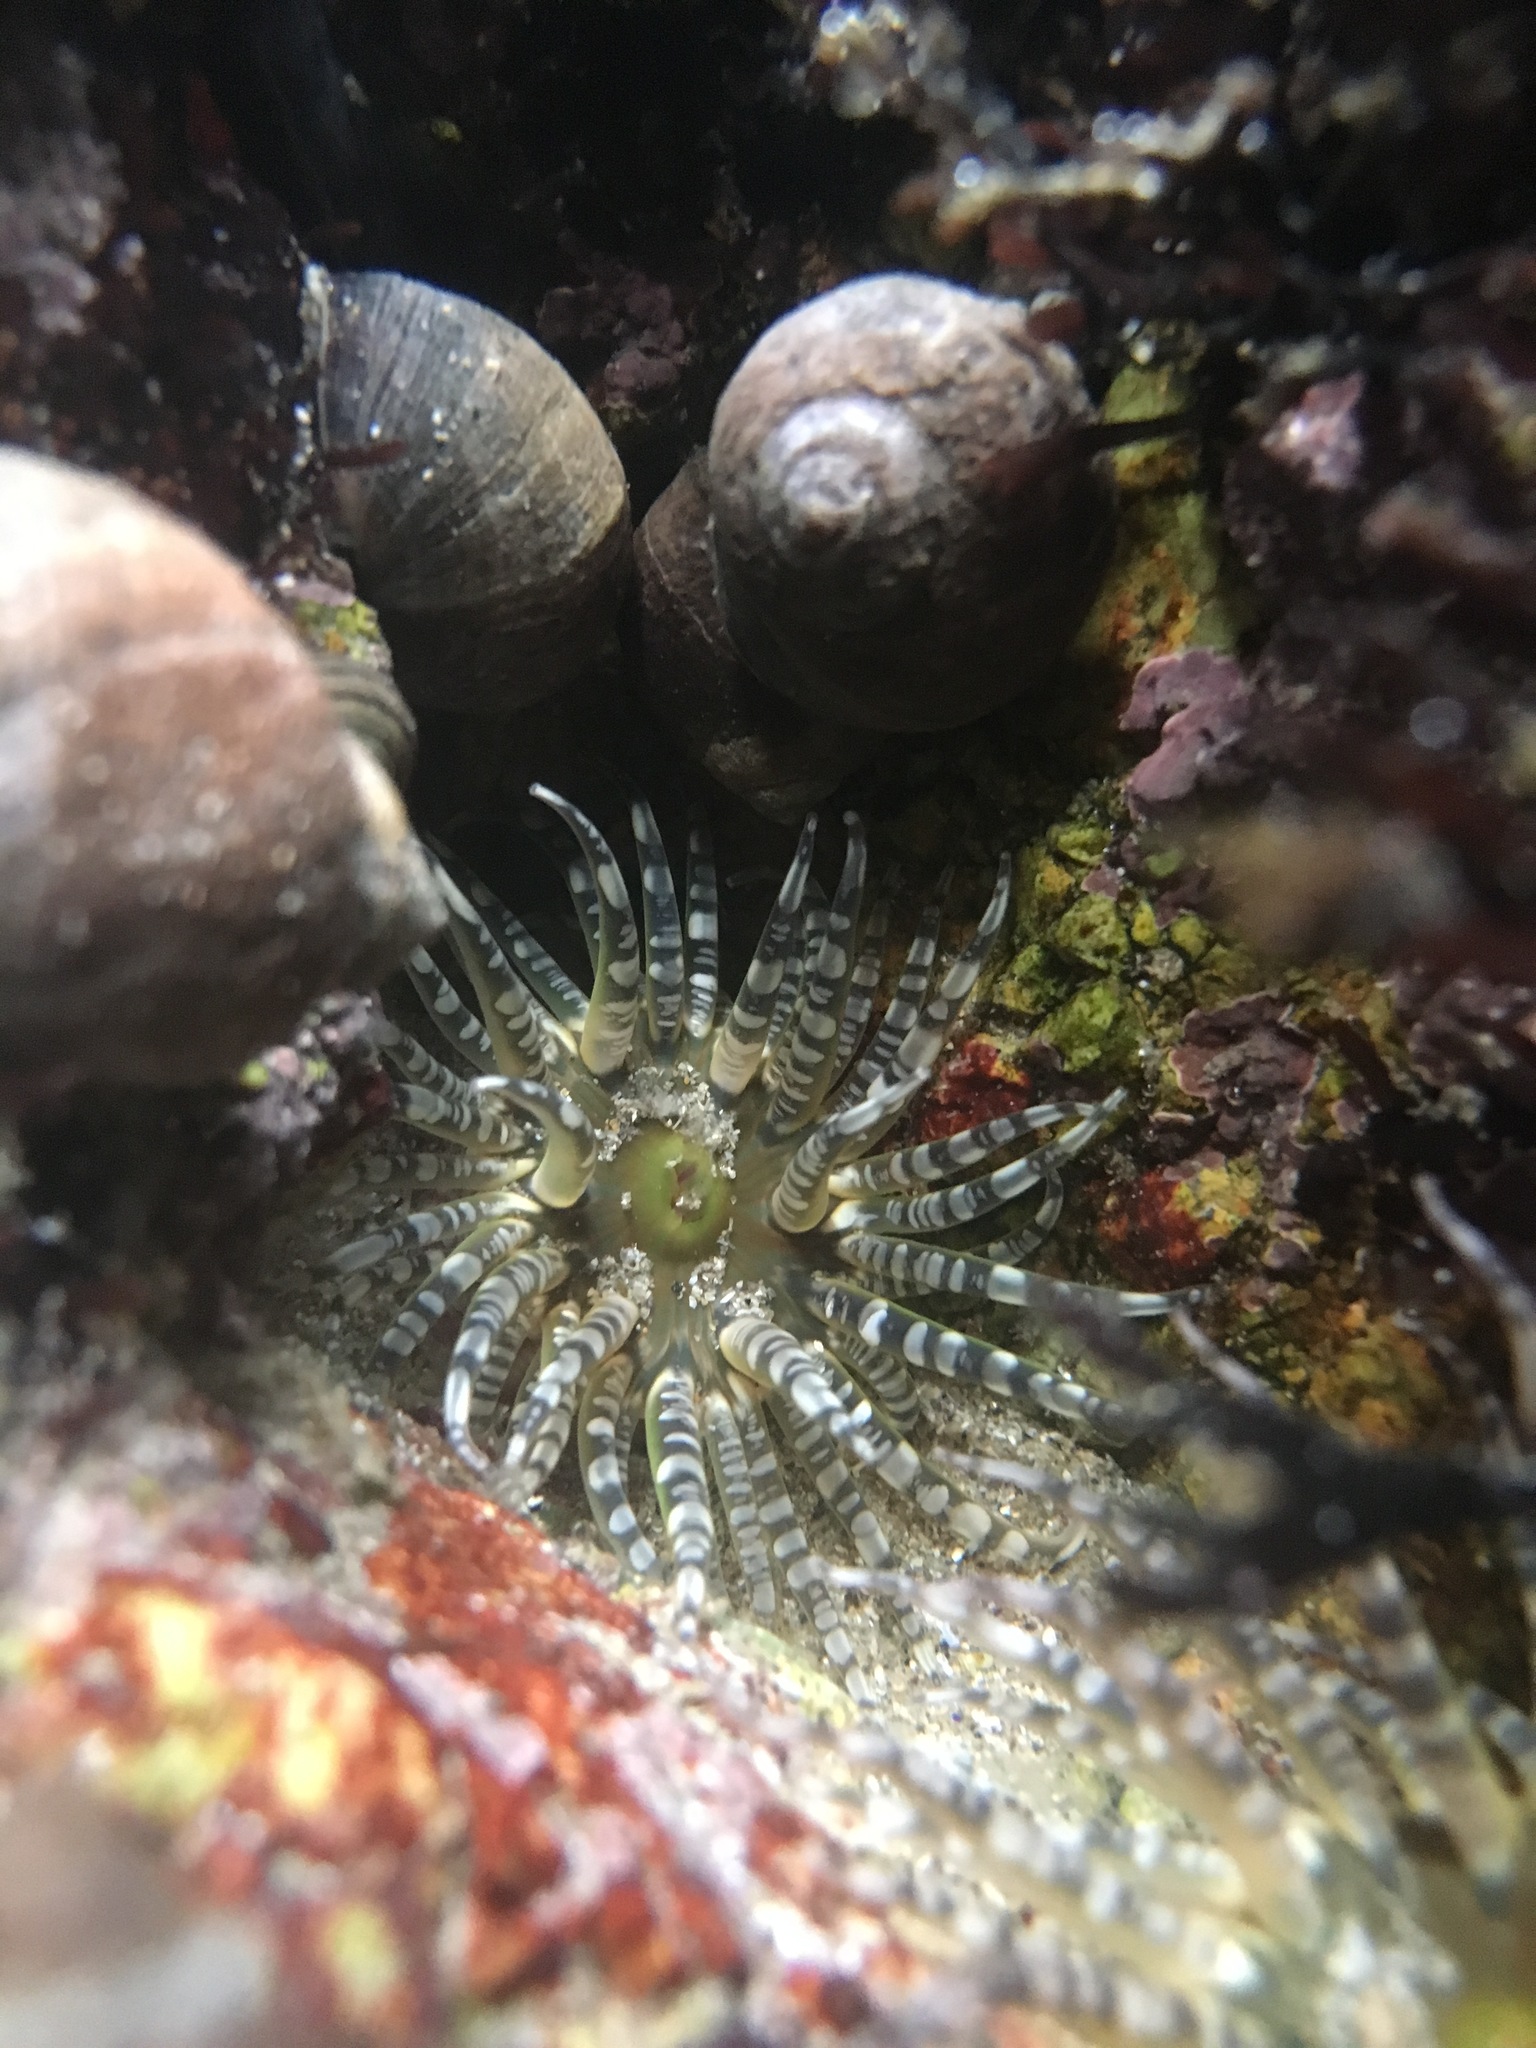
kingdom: Animalia
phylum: Cnidaria
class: Anthozoa
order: Actiniaria
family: Actiniidae
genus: Bunodactis
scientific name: Bunodactis verrucosa
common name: Gem anemone
